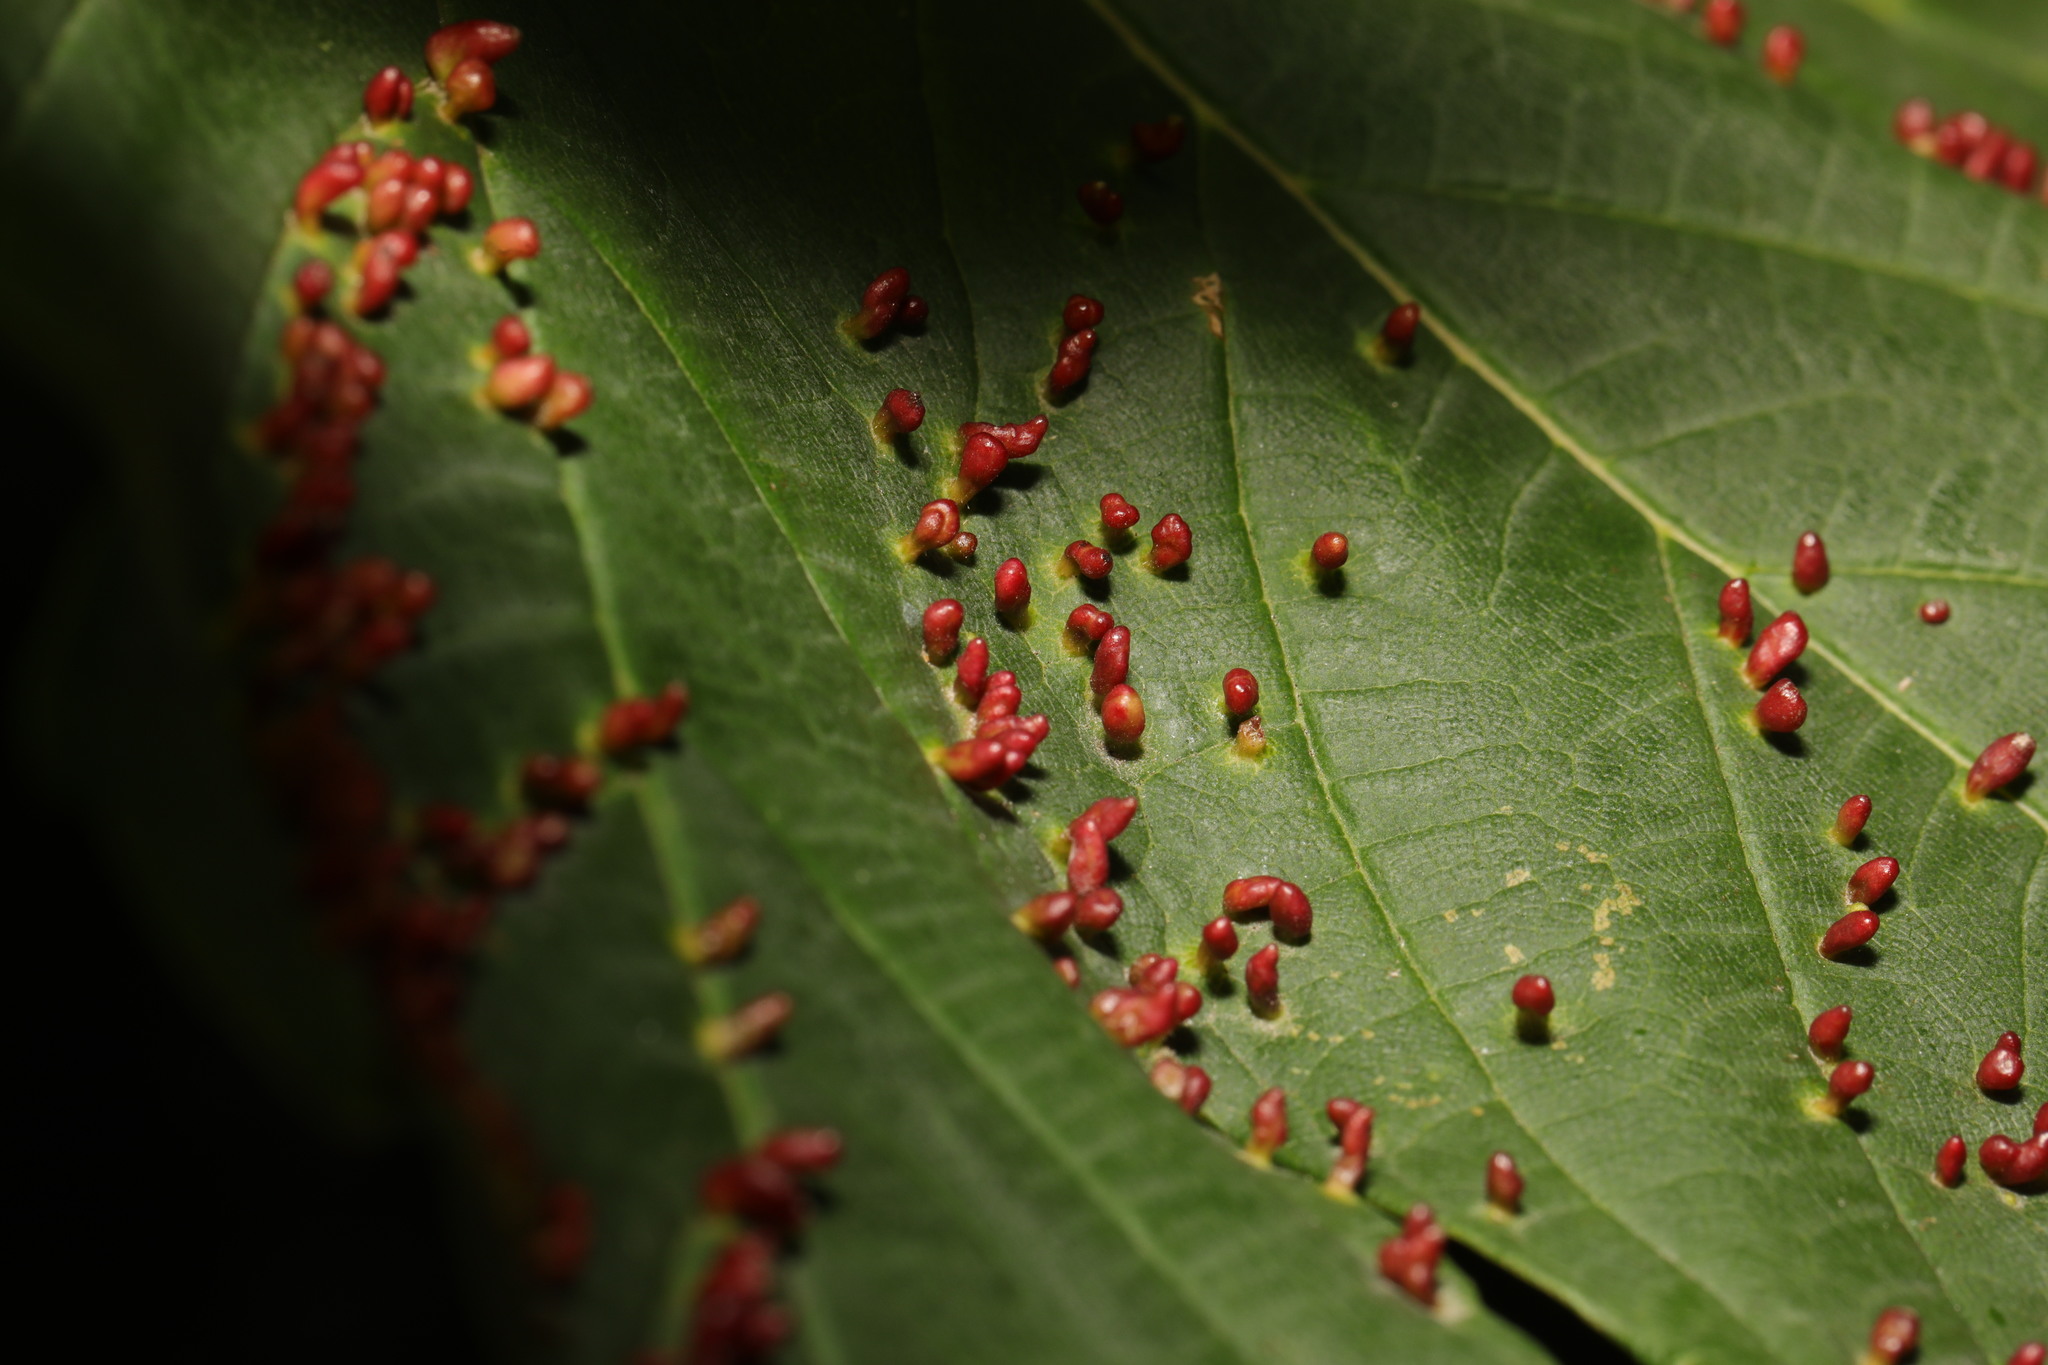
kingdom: Animalia
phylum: Arthropoda
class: Arachnida
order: Trombidiformes
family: Eriophyidae
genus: Aceria
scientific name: Aceria cephaloneus
